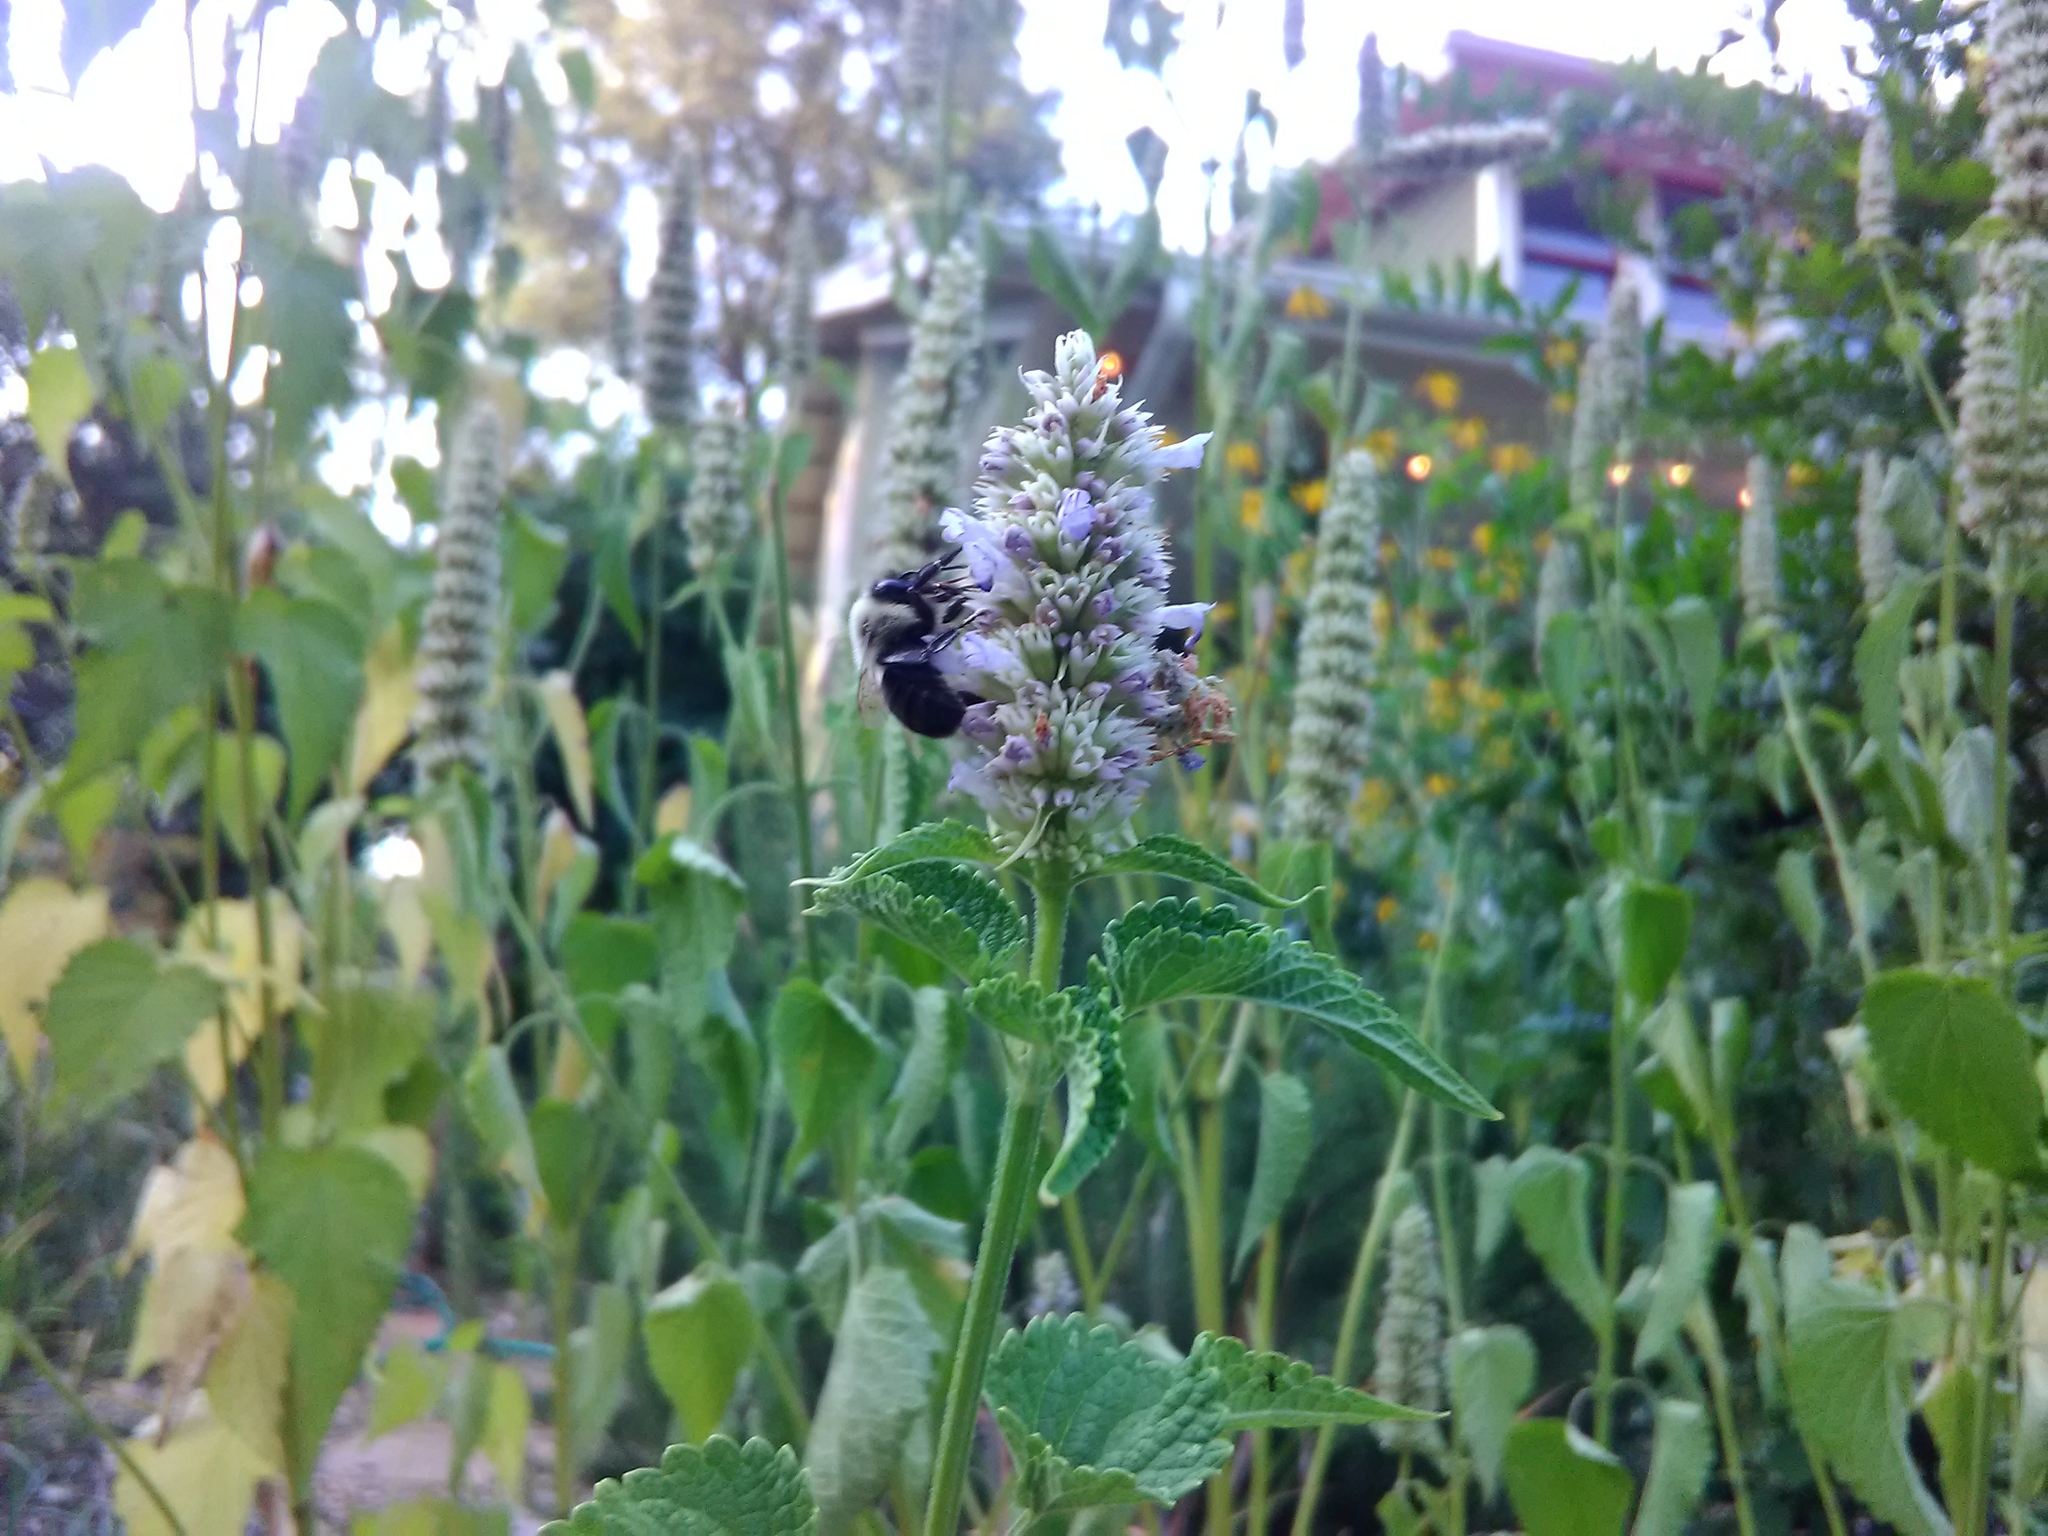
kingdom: Animalia
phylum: Arthropoda
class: Insecta
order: Hymenoptera
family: Apidae
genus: Bombus
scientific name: Bombus impatiens
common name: Common eastern bumble bee
